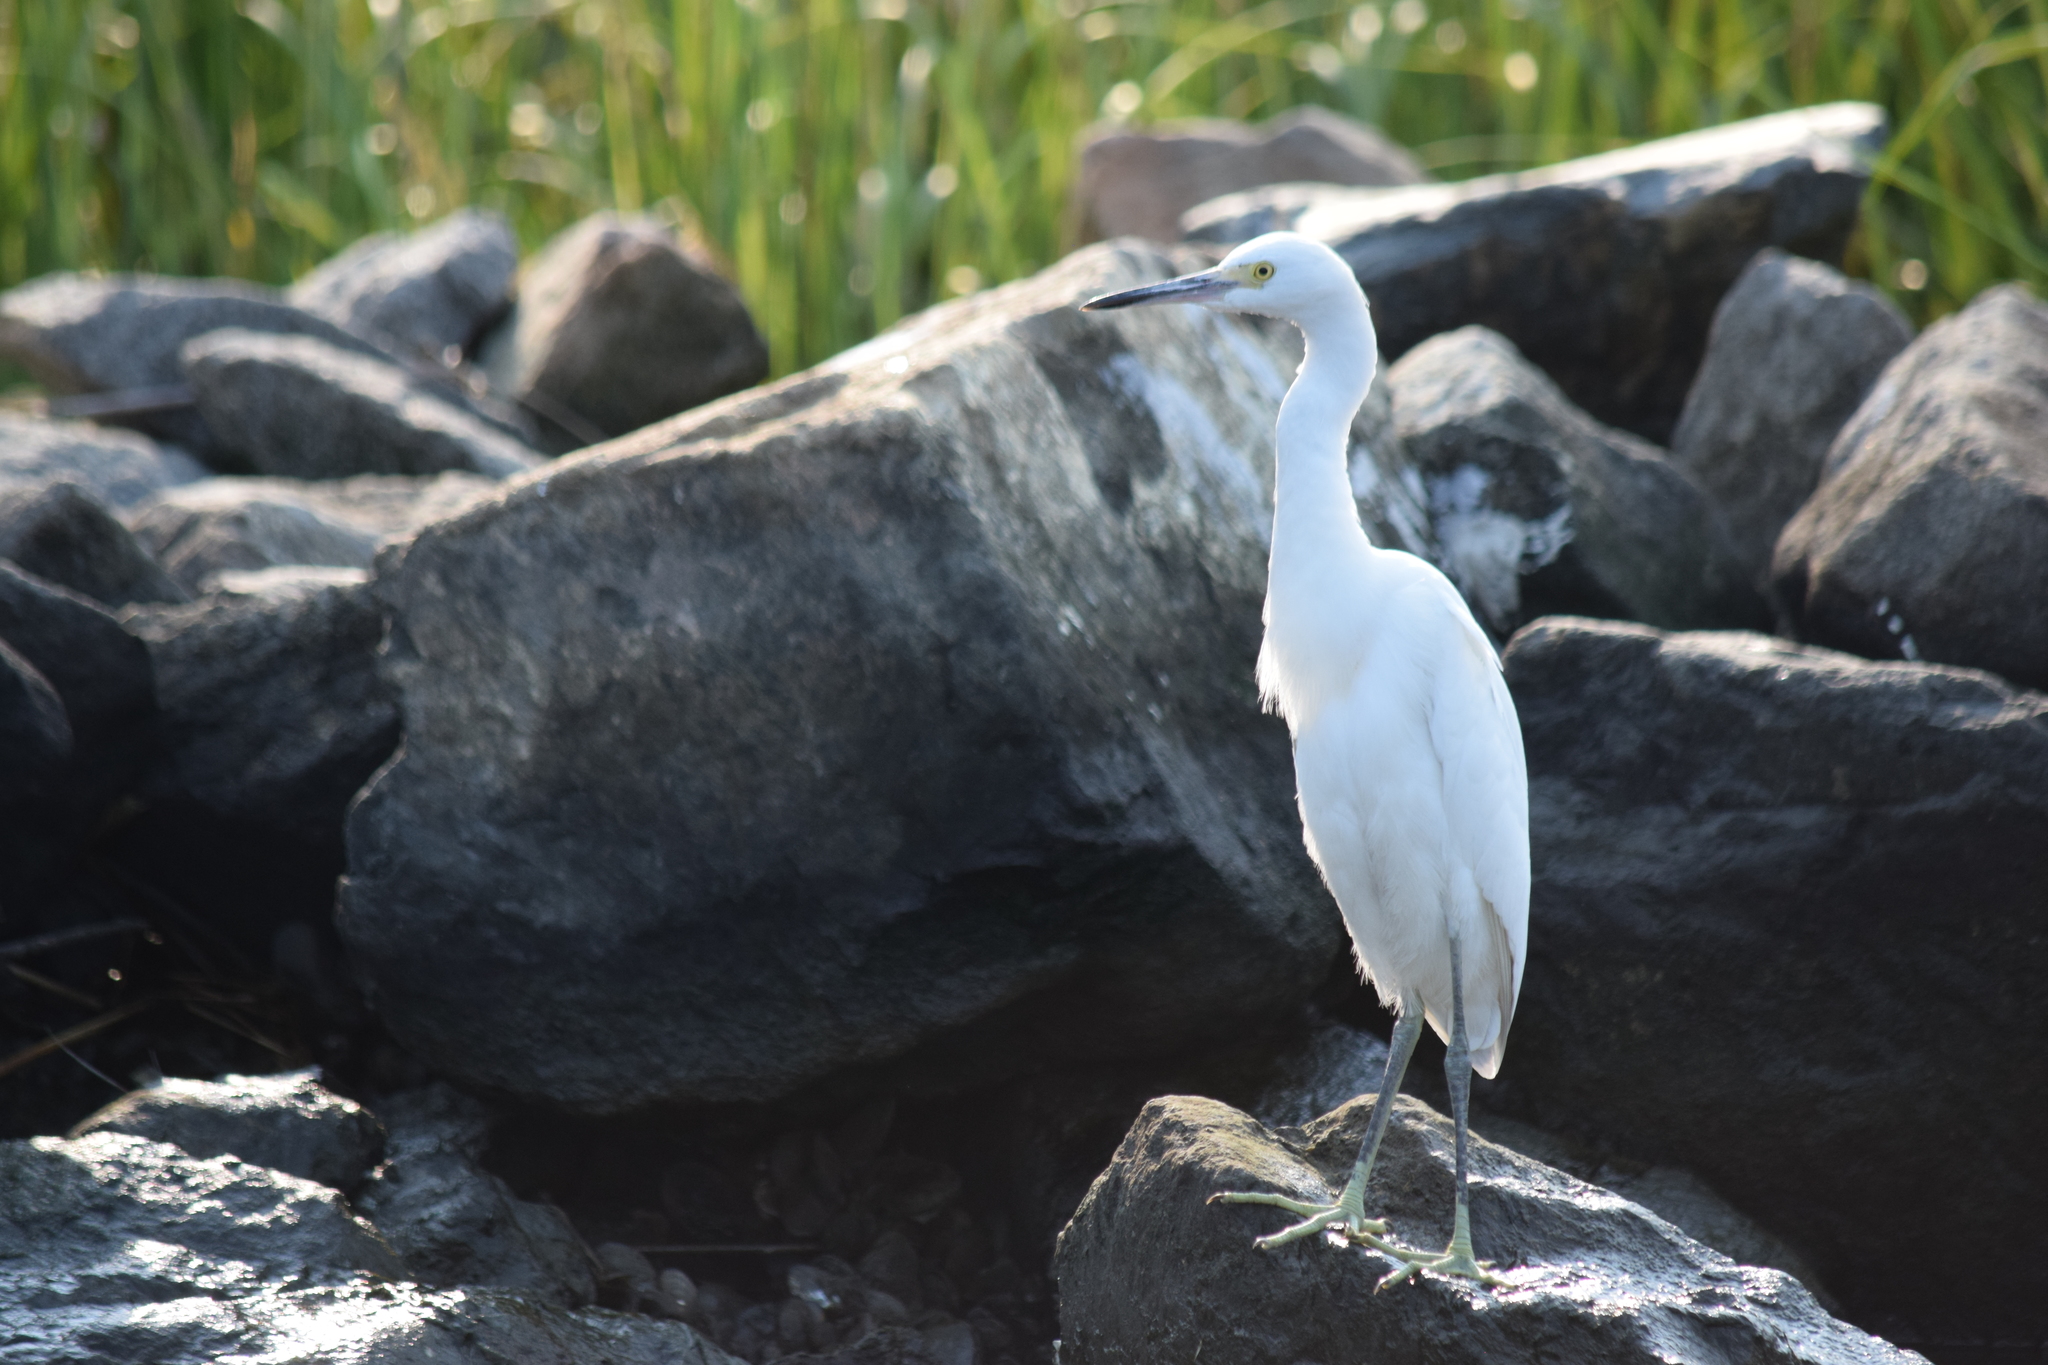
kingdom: Animalia
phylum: Chordata
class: Aves
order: Pelecaniformes
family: Ardeidae
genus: Egretta
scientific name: Egretta thula
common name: Snowy egret
